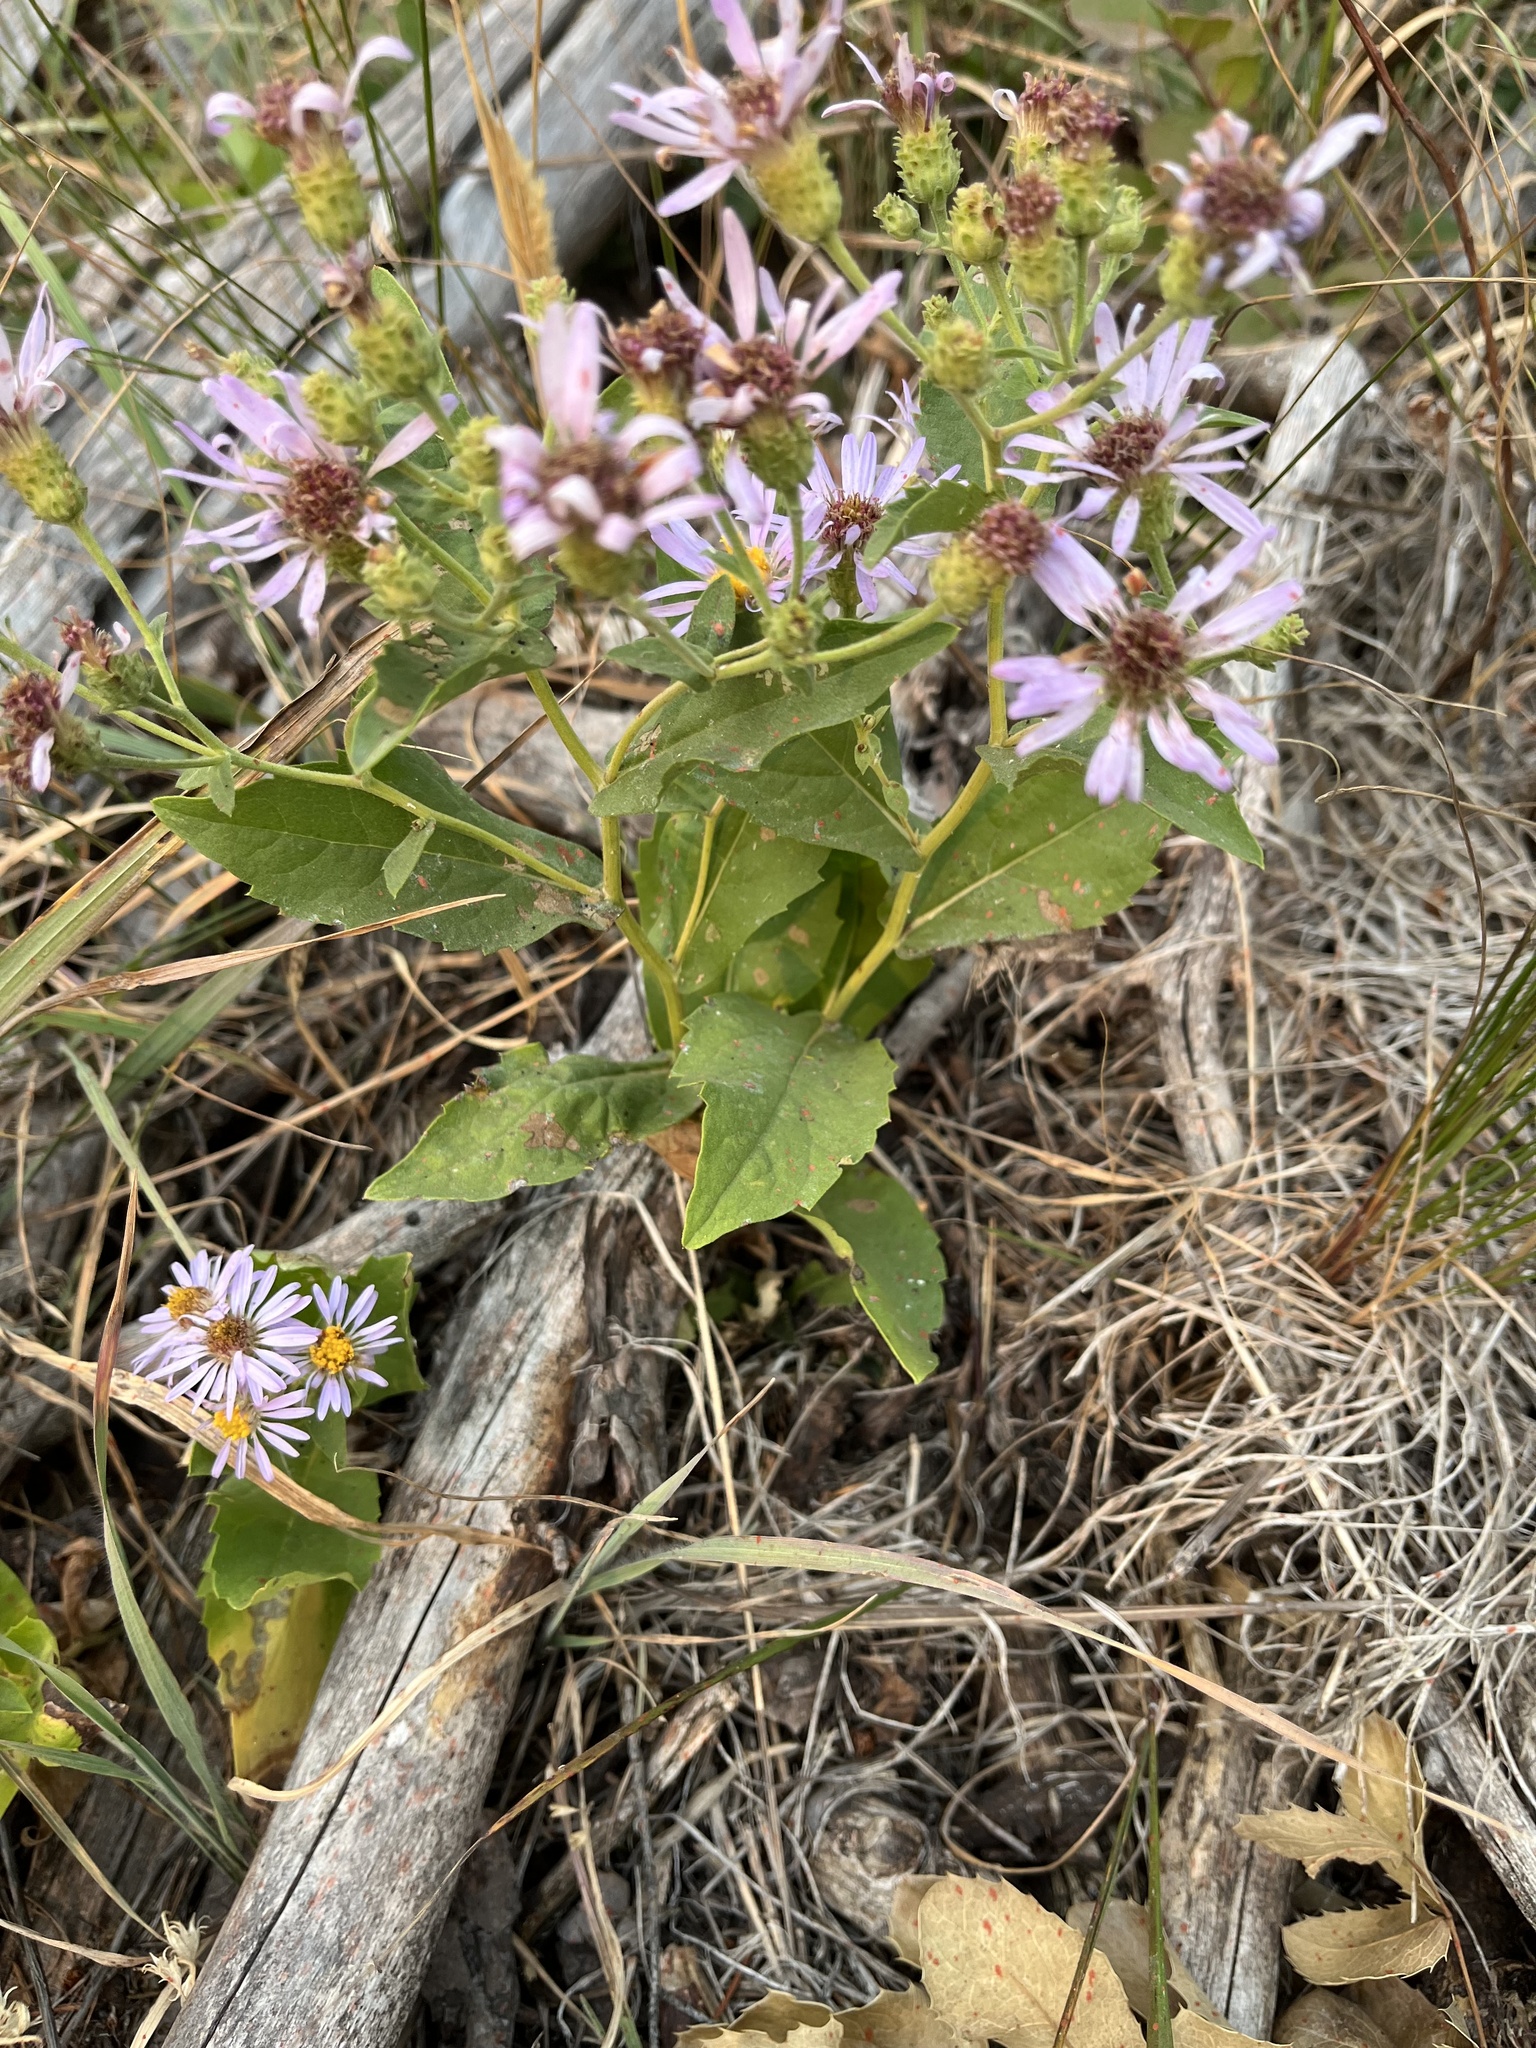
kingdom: Plantae
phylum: Tracheophyta
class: Magnoliopsida
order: Asterales
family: Asteraceae
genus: Eurybia
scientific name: Eurybia conspicua
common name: Showy aster
